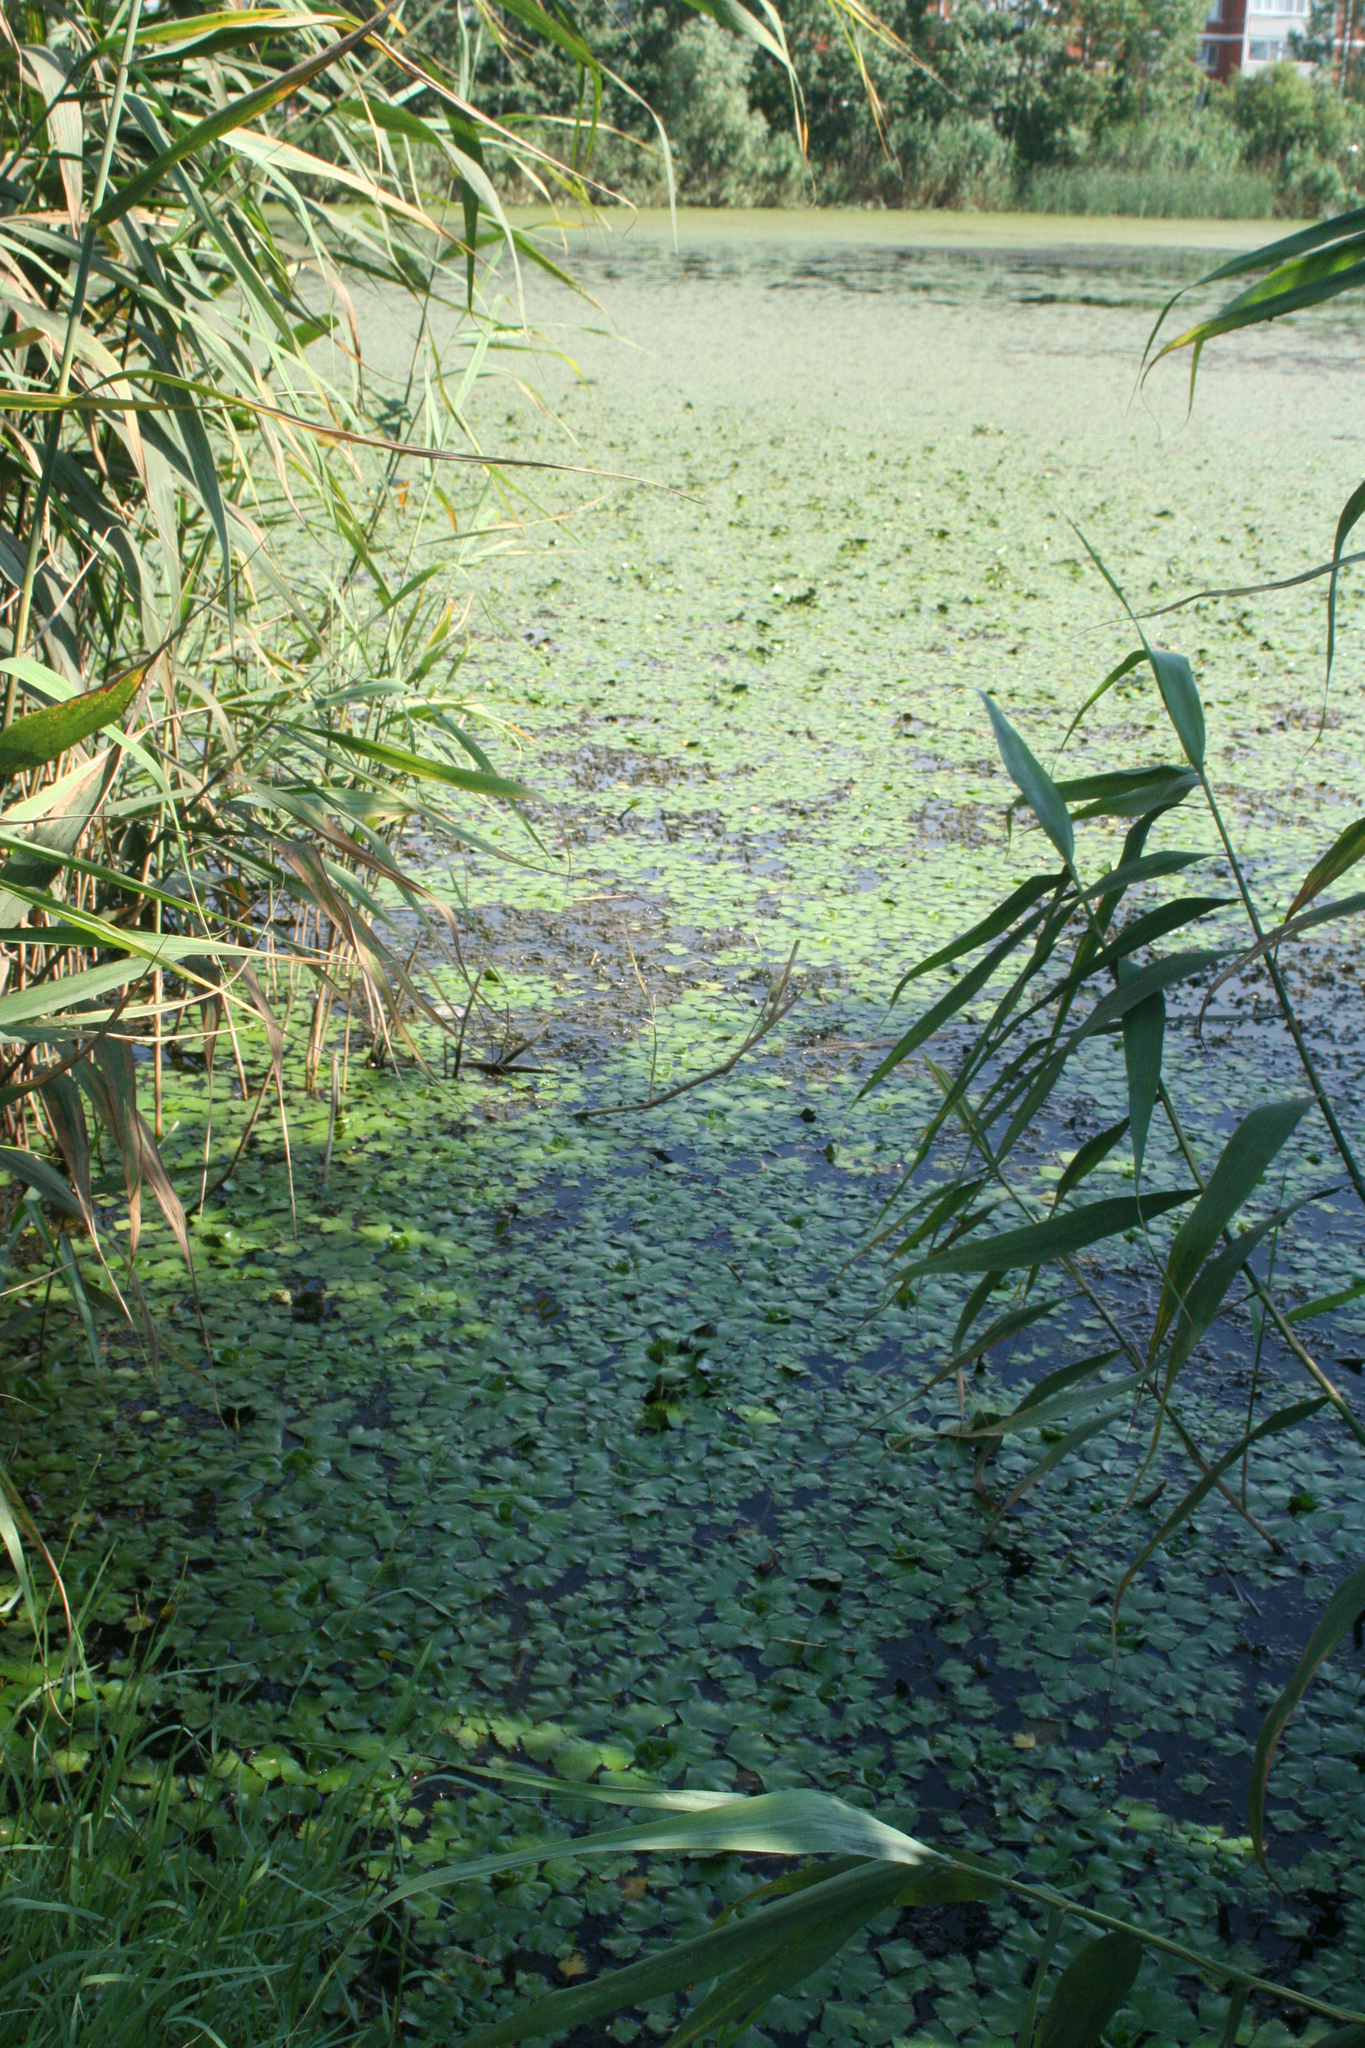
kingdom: Plantae
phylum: Tracheophyta
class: Magnoliopsida
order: Myrtales
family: Lythraceae
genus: Trapa
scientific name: Trapa natans
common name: Water chestnut
